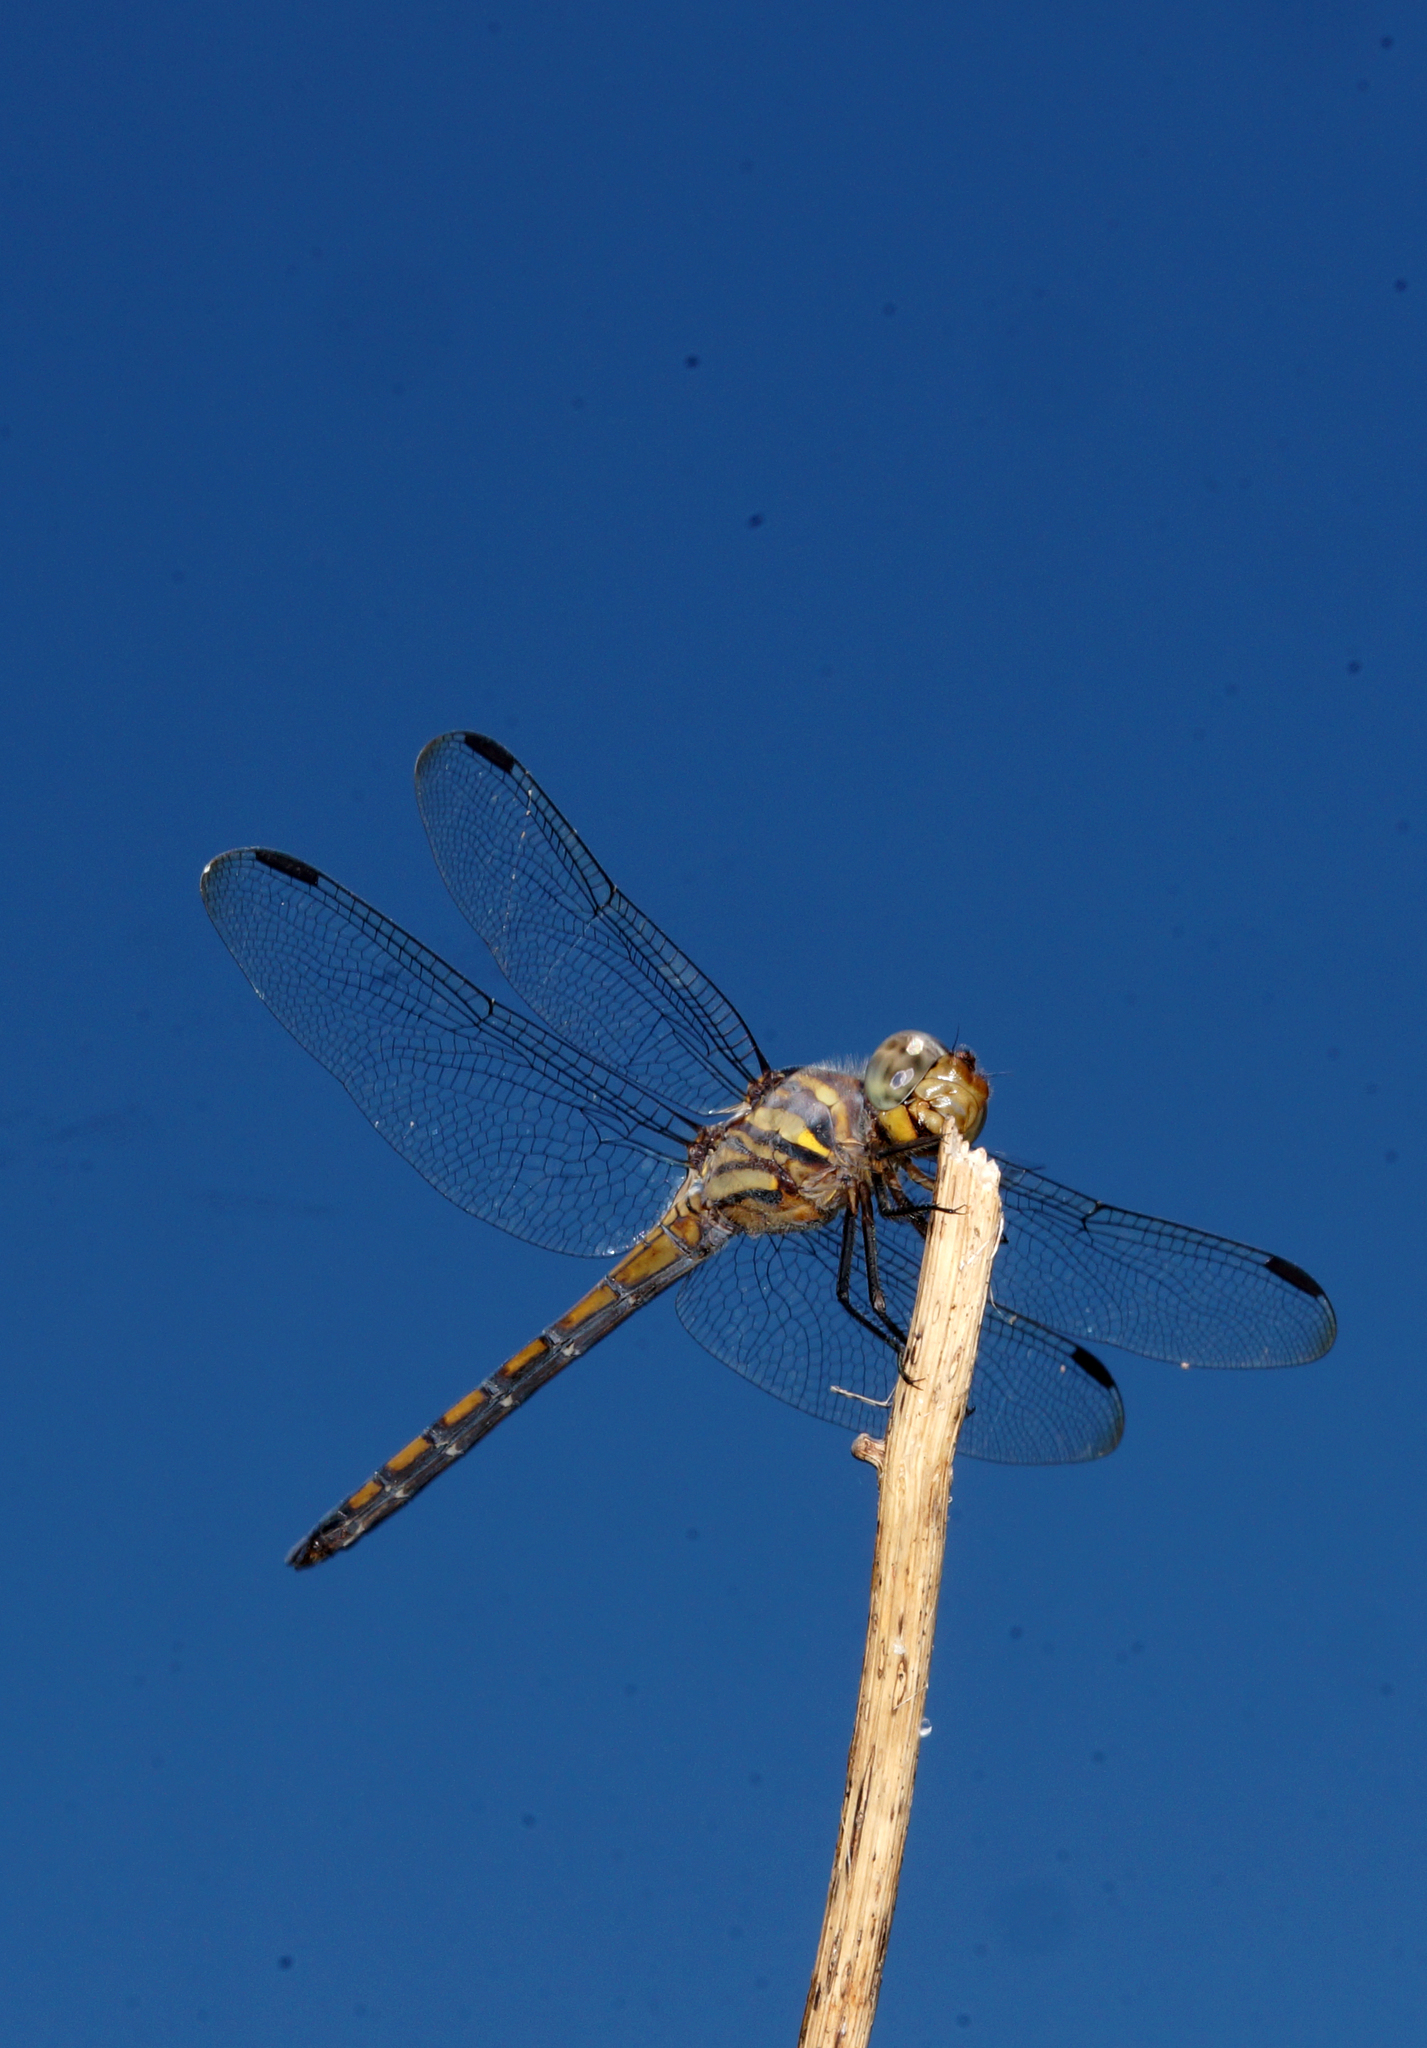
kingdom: Animalia
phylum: Arthropoda
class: Insecta
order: Odonata
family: Libellulidae
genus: Potamarcha
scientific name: Potamarcha congener
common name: Blue chaser
